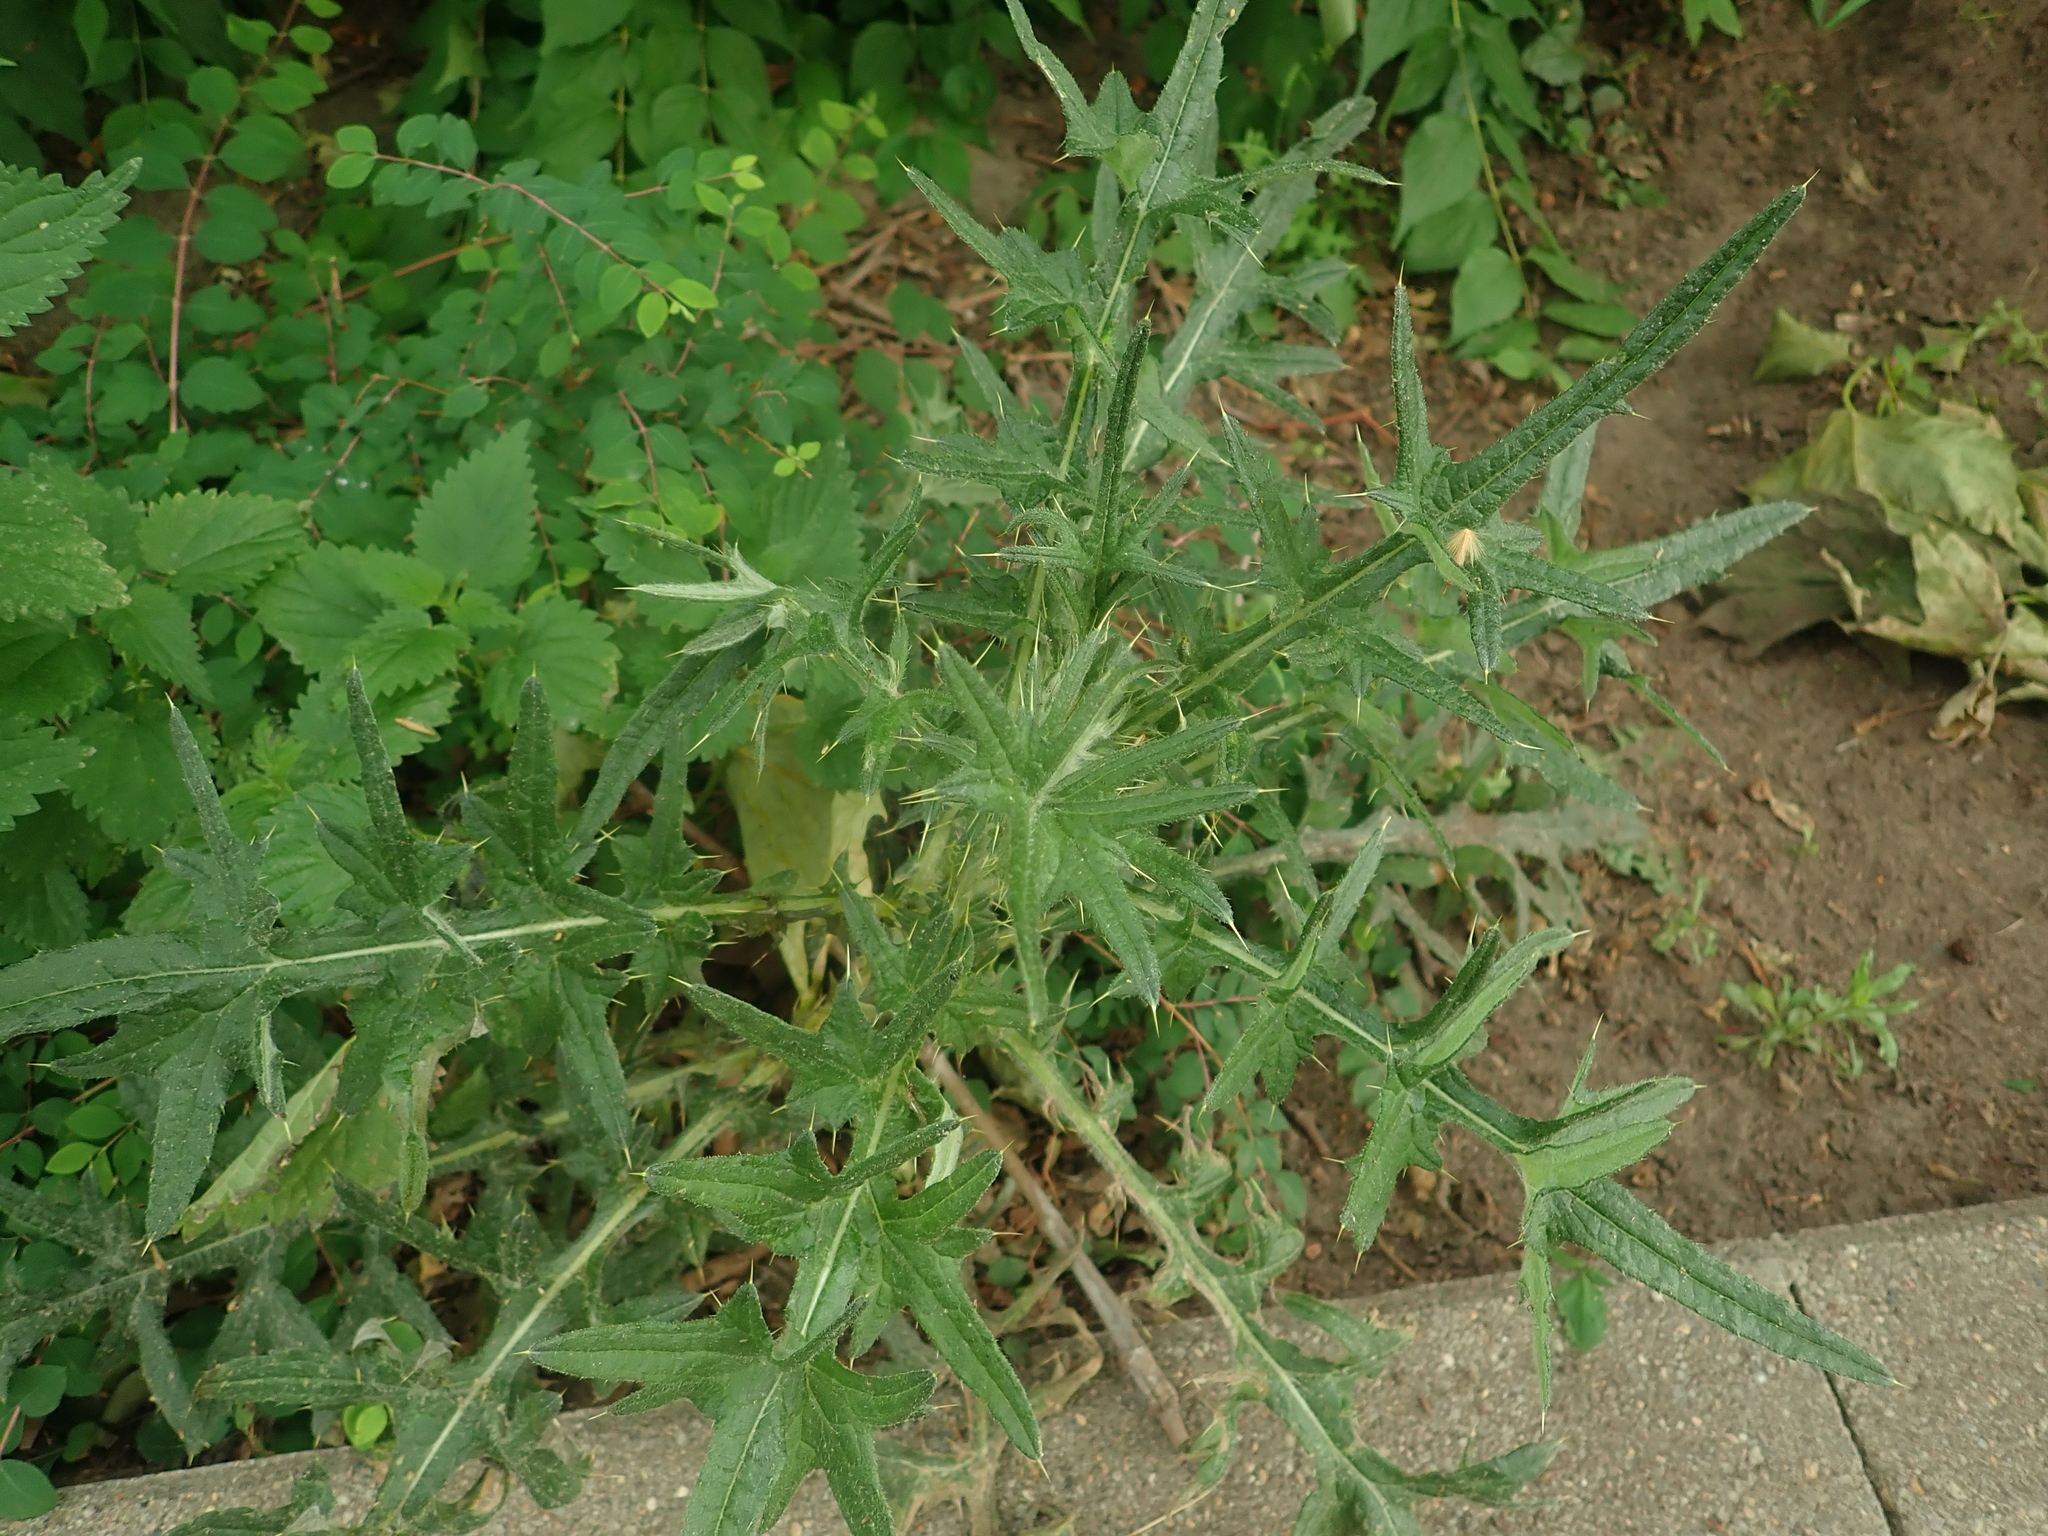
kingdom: Plantae
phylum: Tracheophyta
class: Magnoliopsida
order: Asterales
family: Asteraceae
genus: Cirsium
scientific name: Cirsium vulgare
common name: Bull thistle
